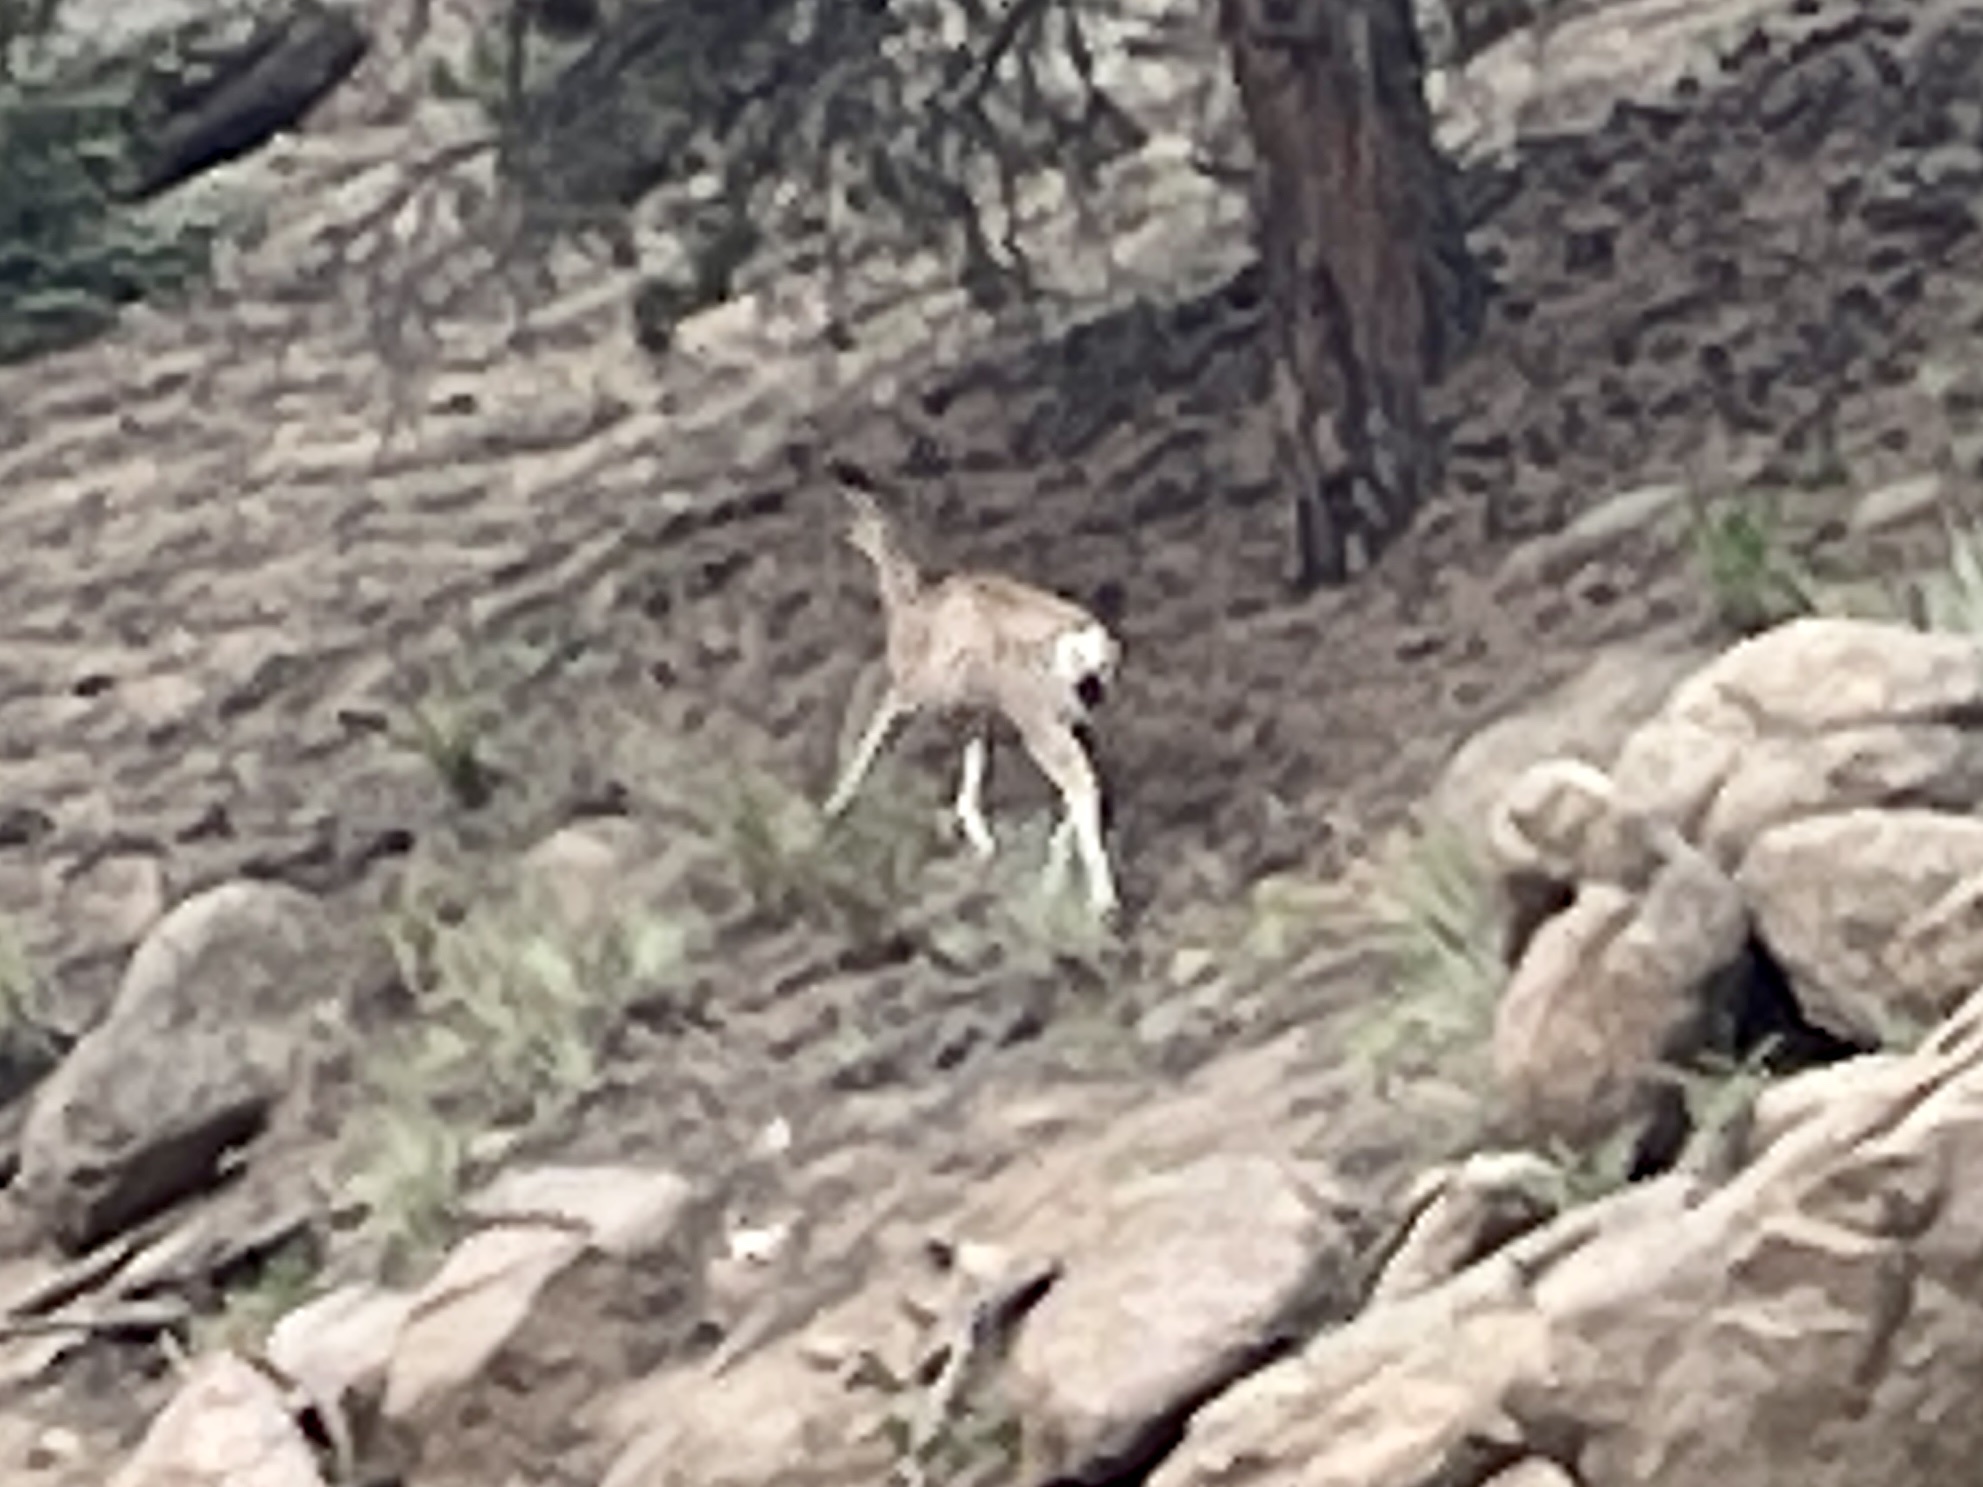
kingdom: Animalia
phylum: Chordata
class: Mammalia
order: Artiodactyla
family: Cervidae
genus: Odocoileus
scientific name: Odocoileus hemionus
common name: Mule deer
